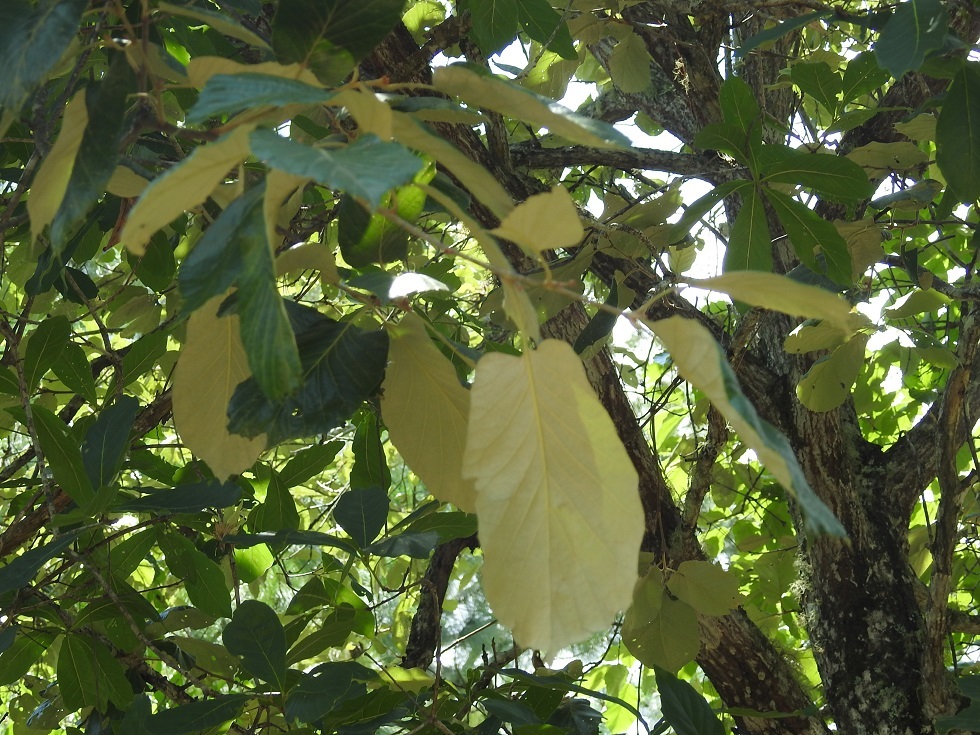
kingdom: Plantae
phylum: Tracheophyta
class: Magnoliopsida
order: Fagales
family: Fagaceae
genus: Quercus
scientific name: Quercus calophylla
